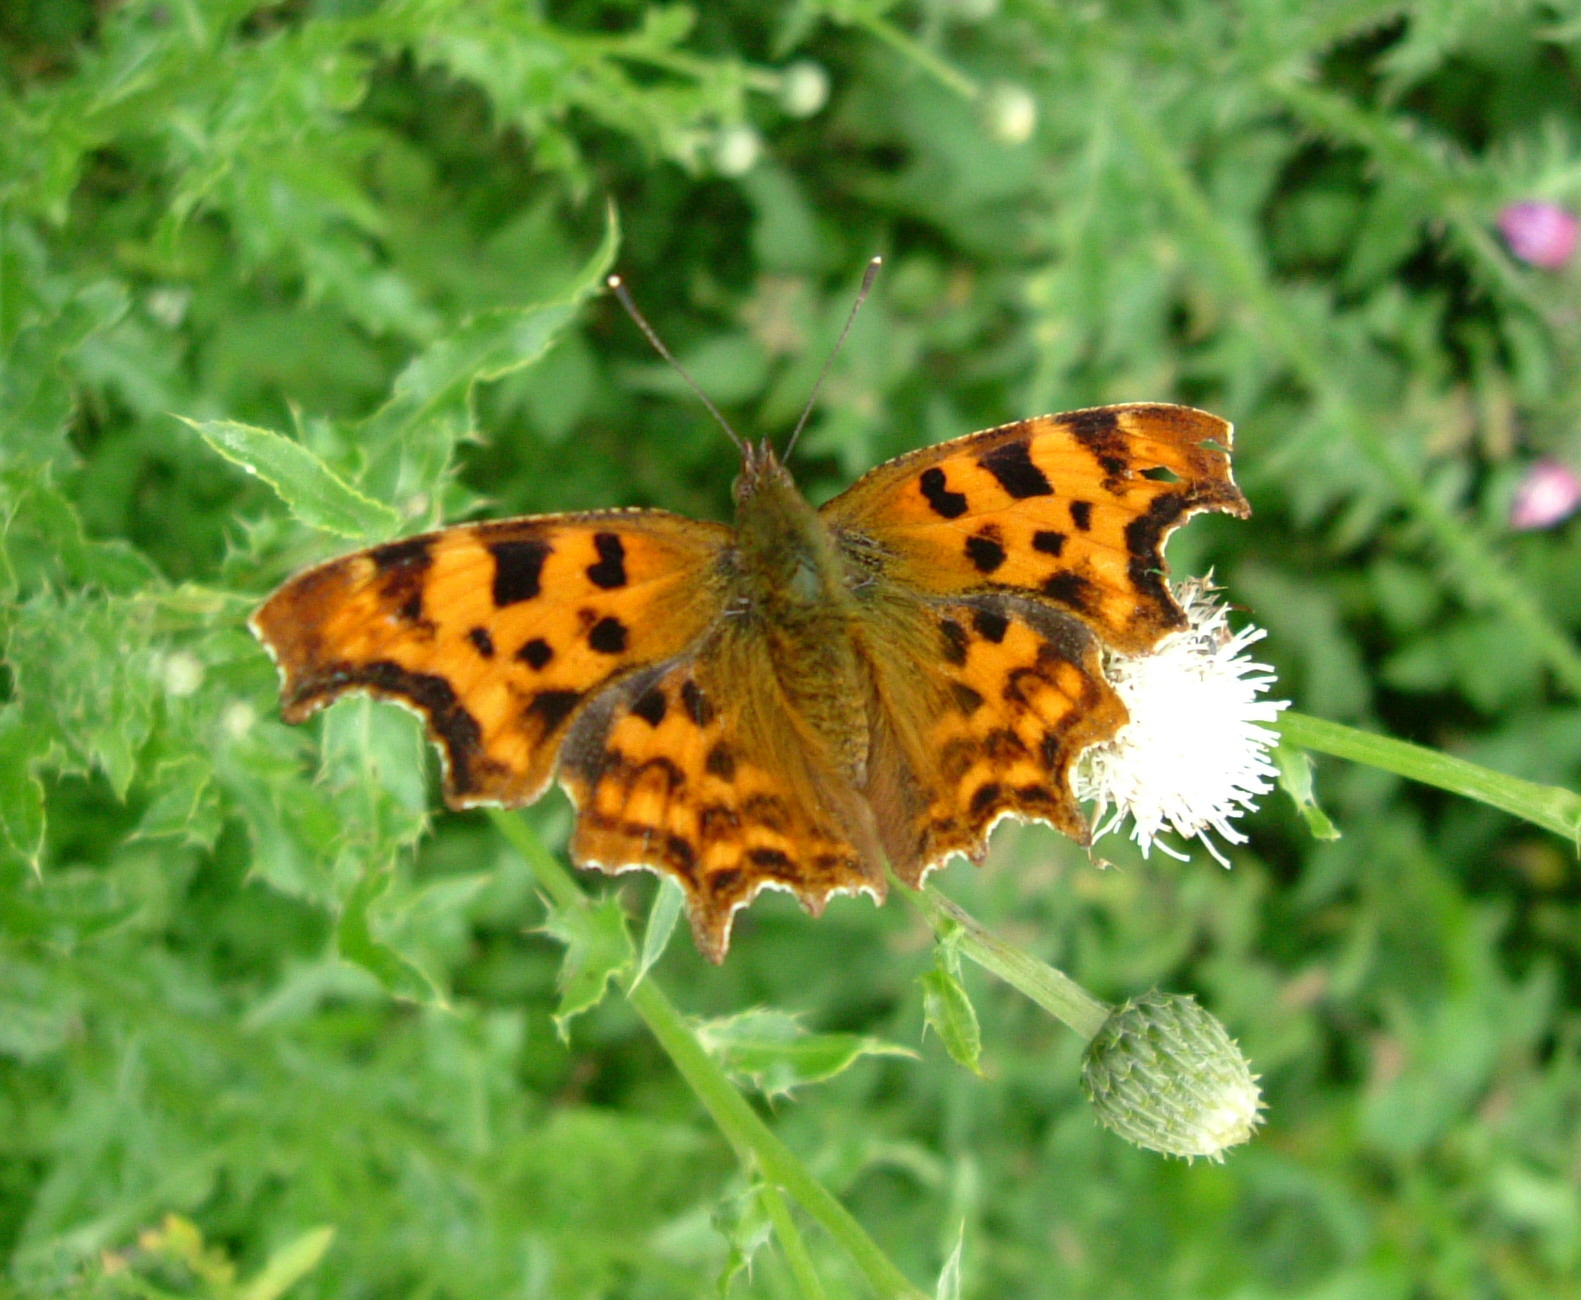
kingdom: Animalia
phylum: Arthropoda
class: Insecta
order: Lepidoptera
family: Nymphalidae
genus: Polygonia
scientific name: Polygonia c-album
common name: Comma
